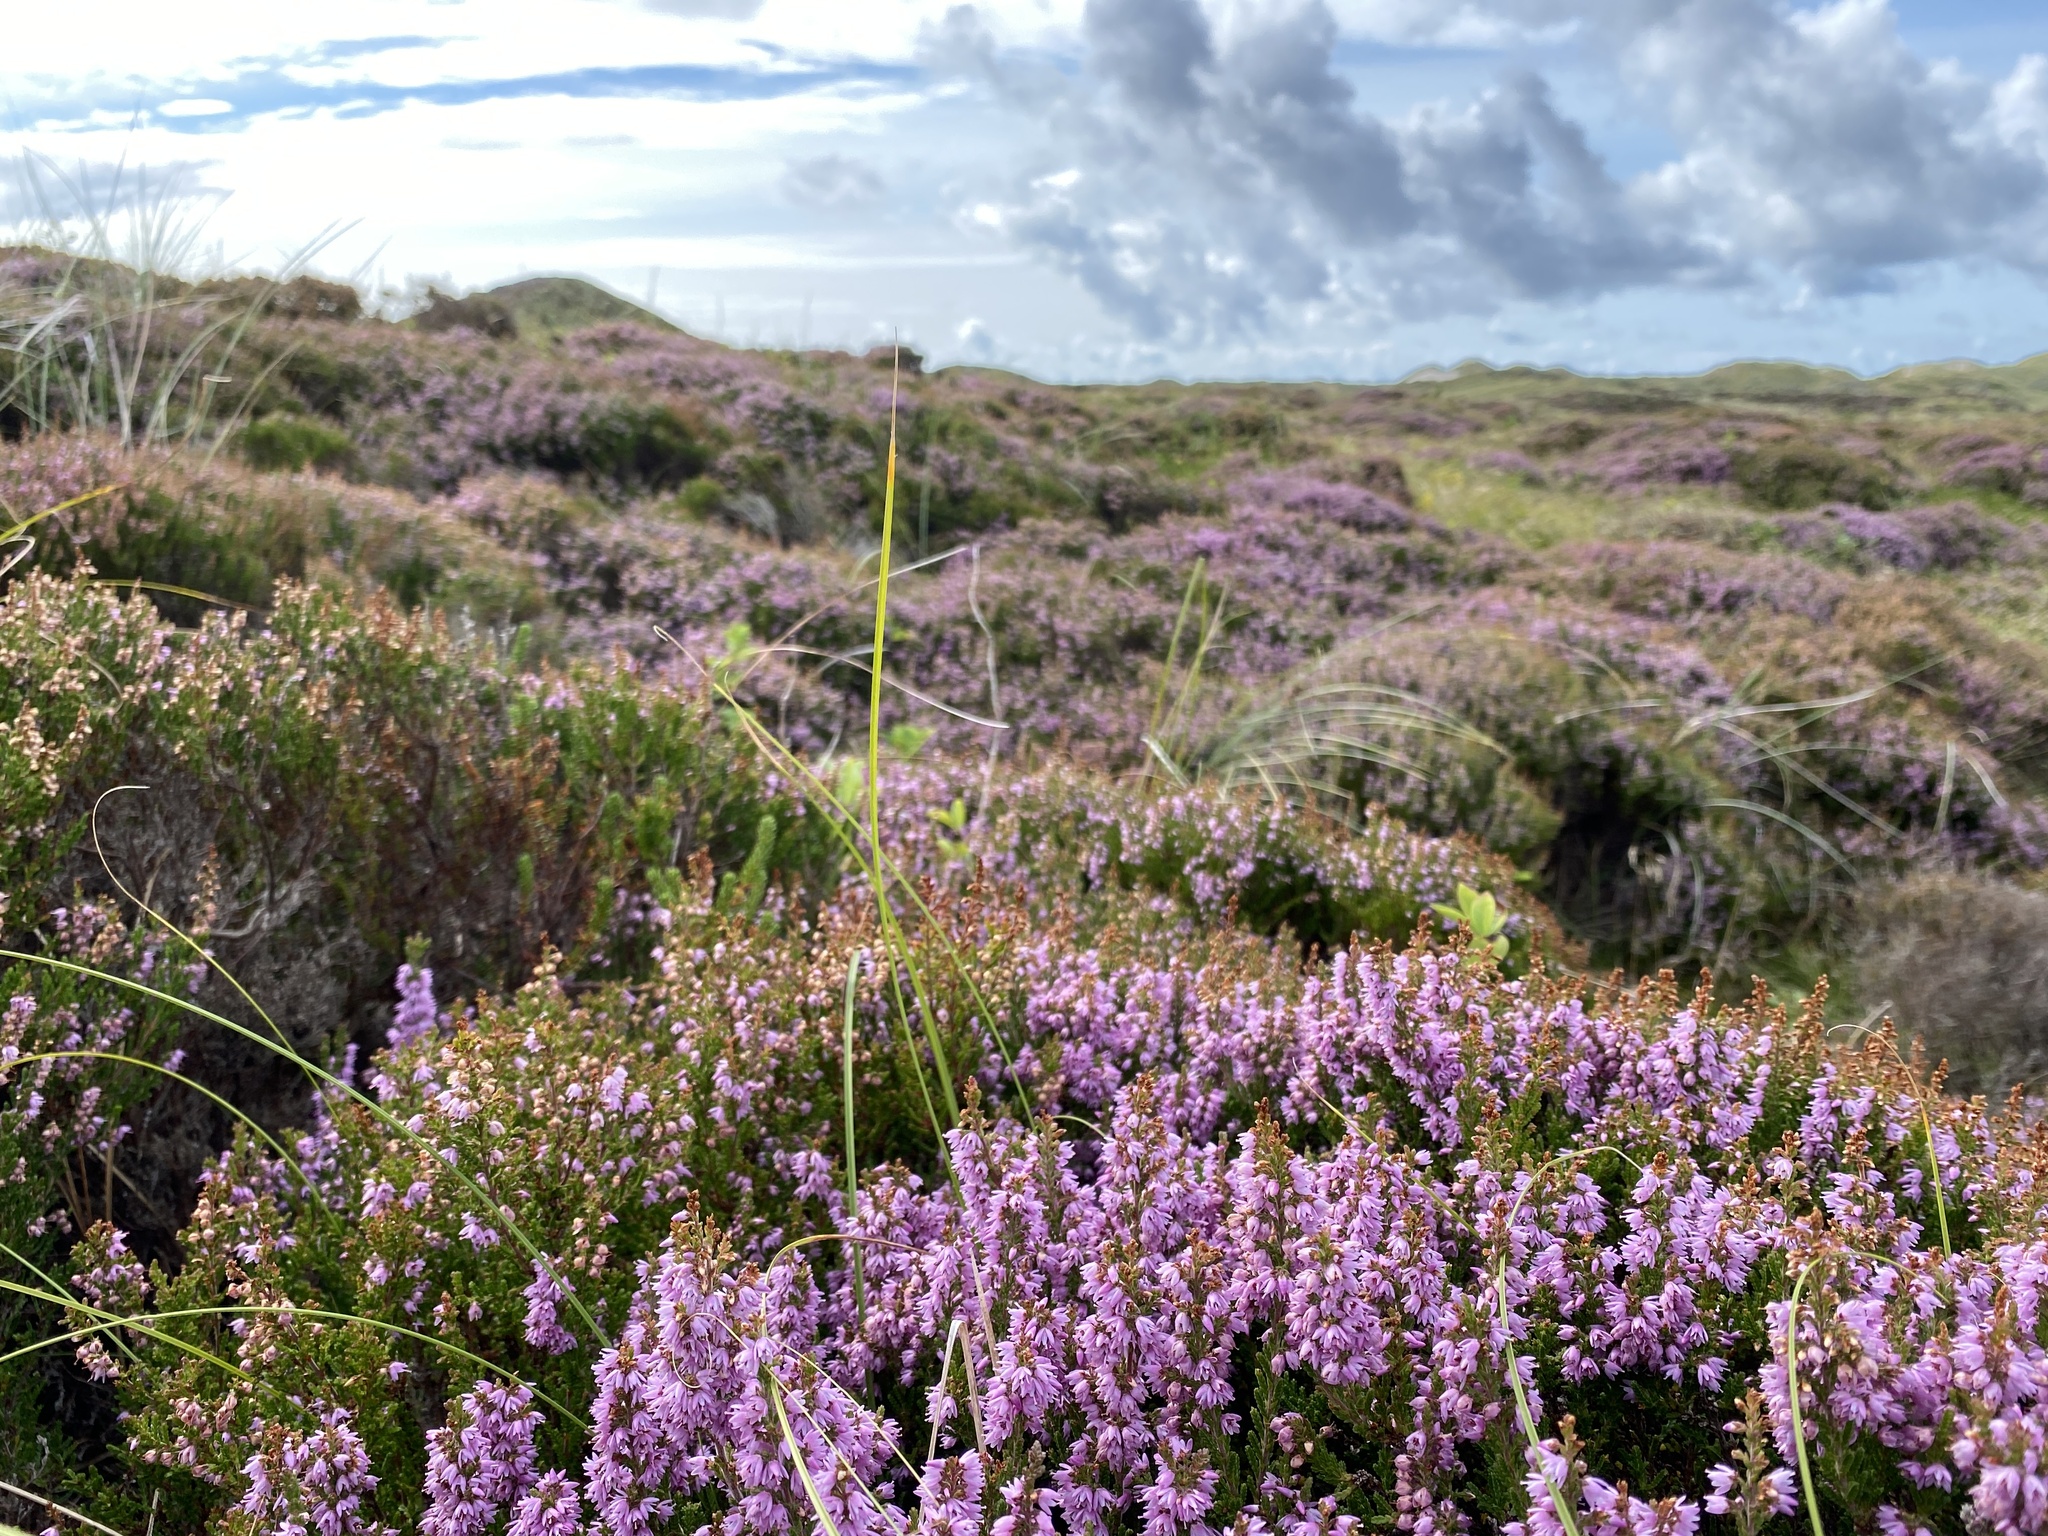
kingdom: Plantae
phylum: Tracheophyta
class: Magnoliopsida
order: Ericales
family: Ericaceae
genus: Calluna
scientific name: Calluna vulgaris
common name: Heather
